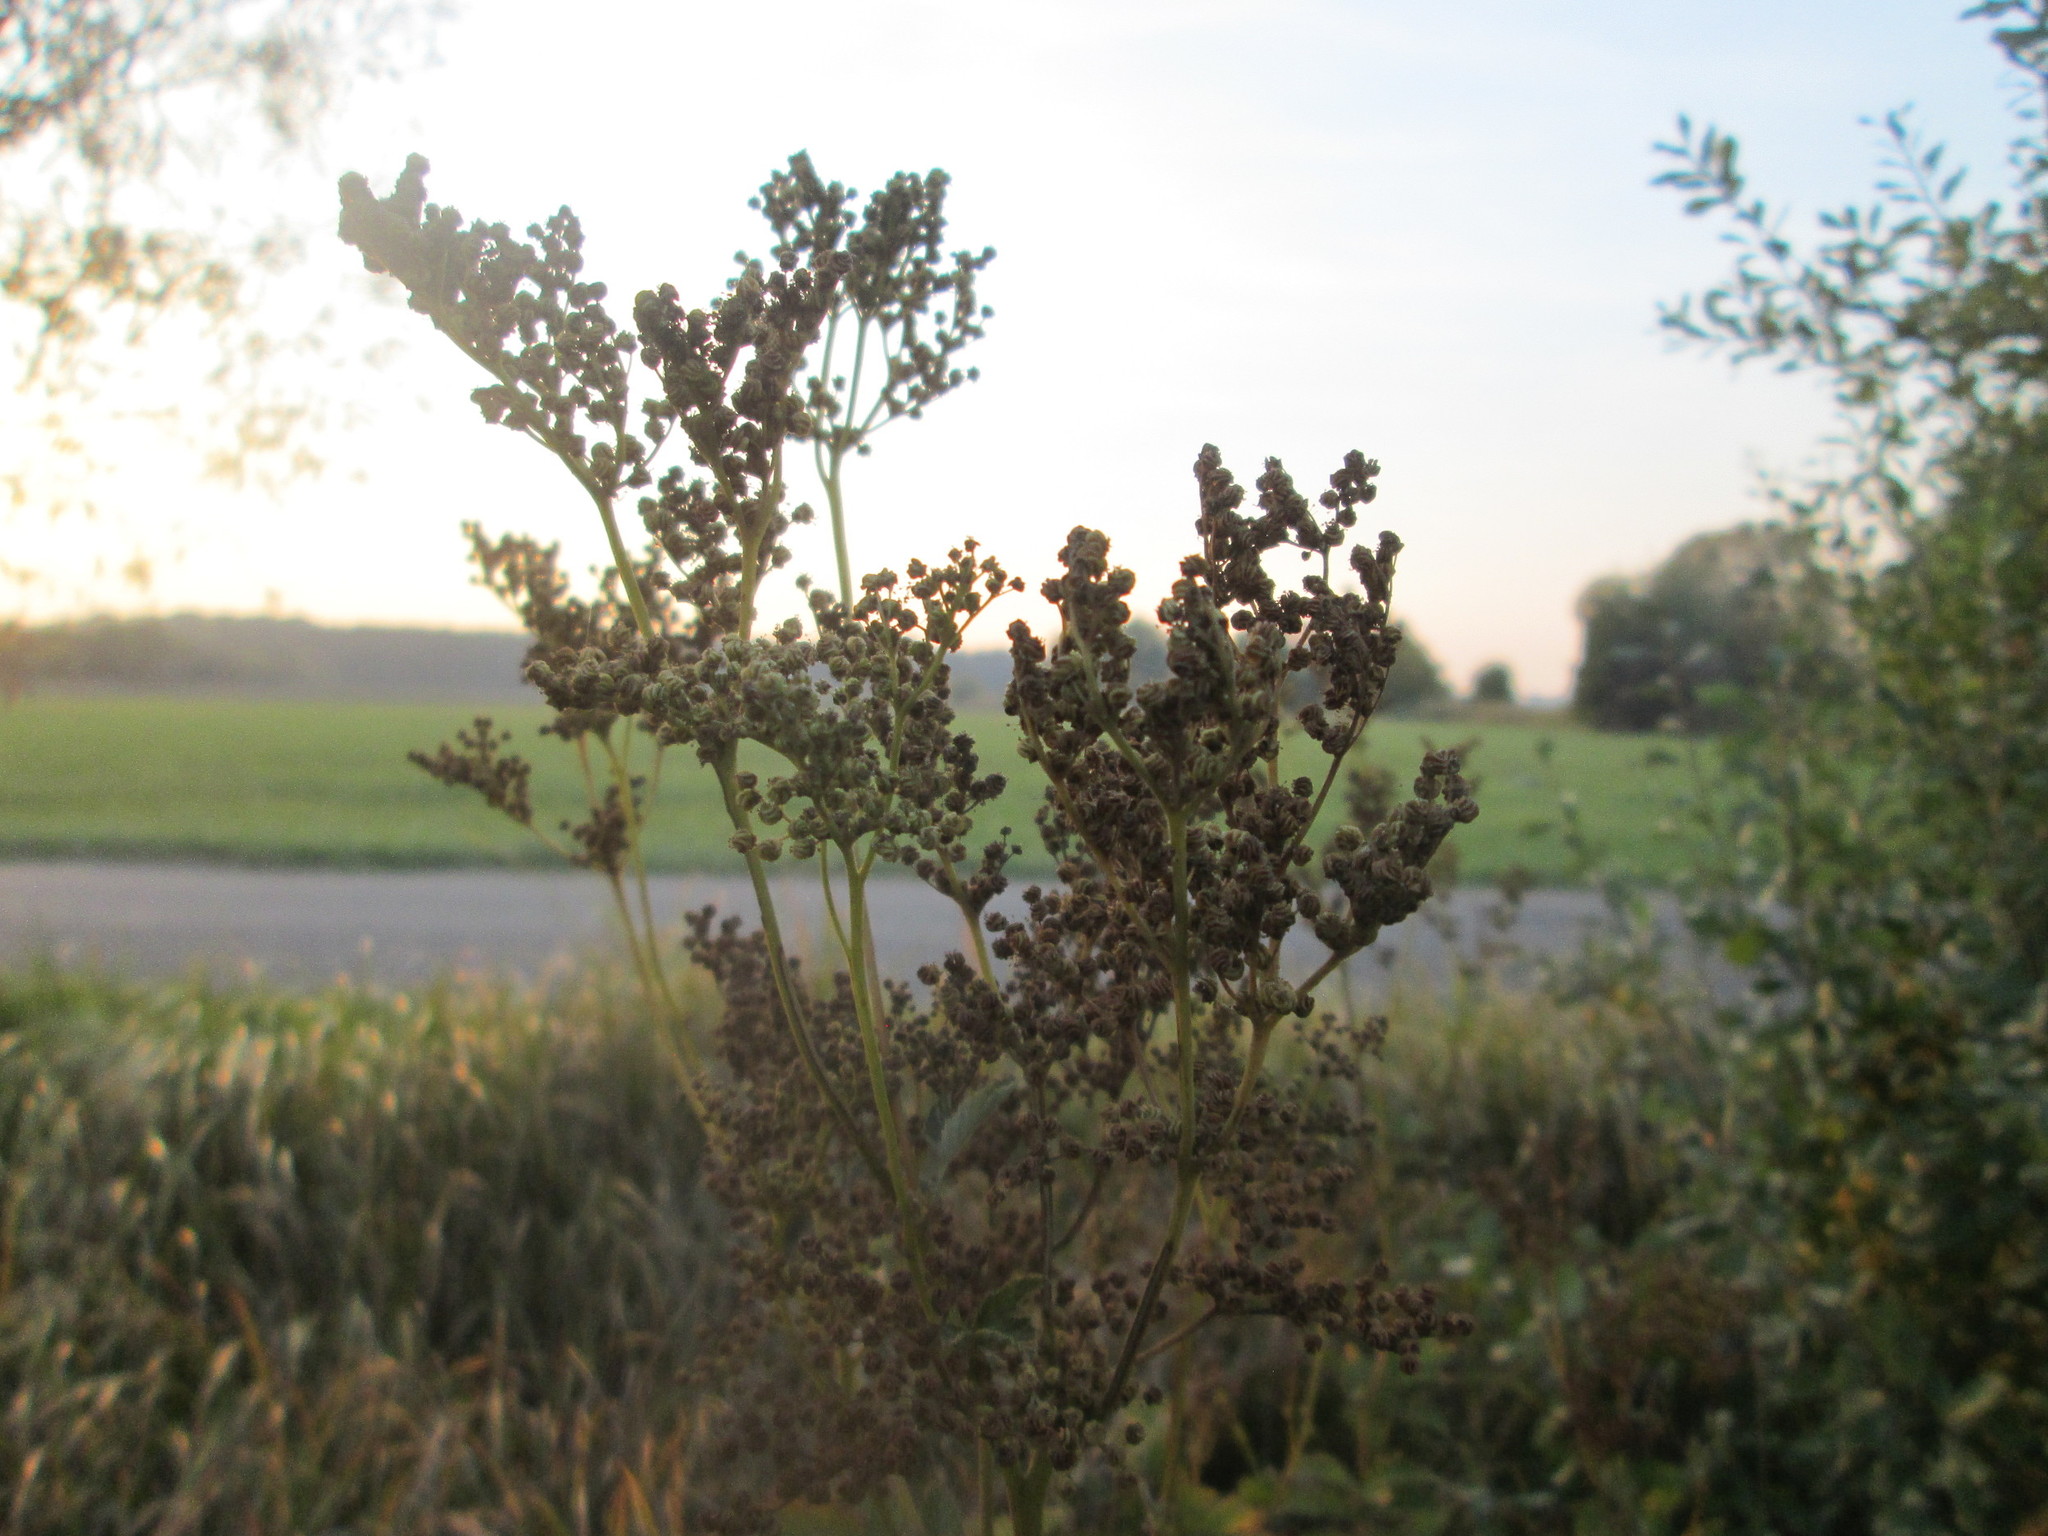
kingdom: Plantae
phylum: Tracheophyta
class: Magnoliopsida
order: Rosales
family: Rosaceae
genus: Filipendula
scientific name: Filipendula ulmaria
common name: Meadowsweet
